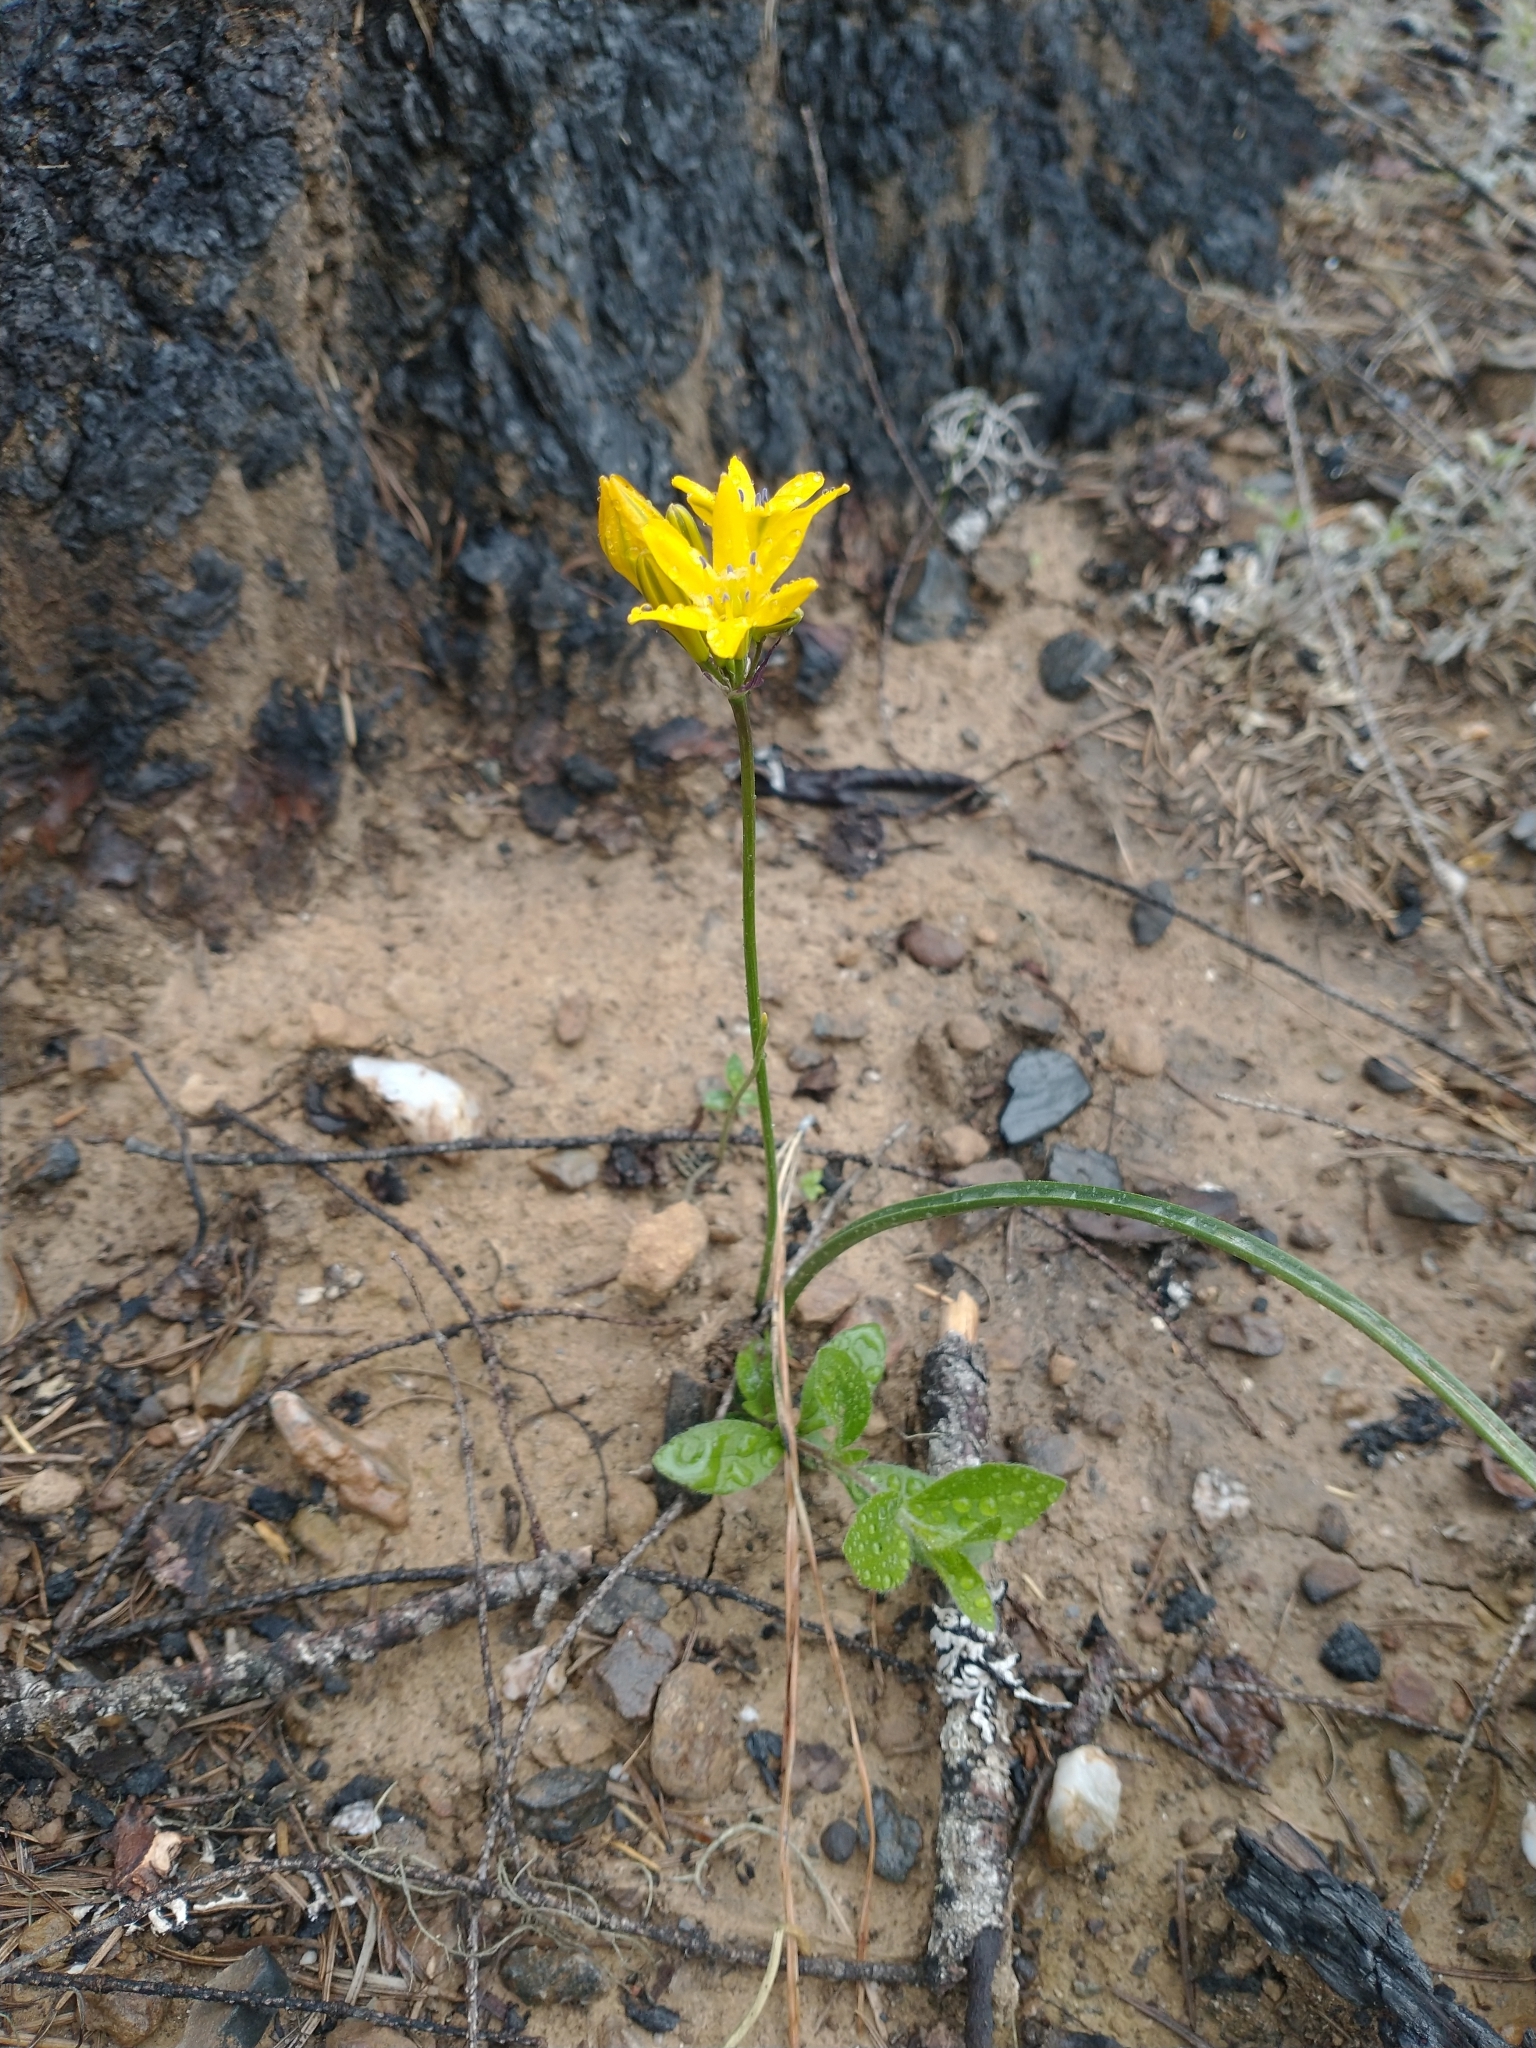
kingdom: Plantae
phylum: Tracheophyta
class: Liliopsida
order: Asparagales
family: Asparagaceae
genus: Triteleia
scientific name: Triteleia crocea
